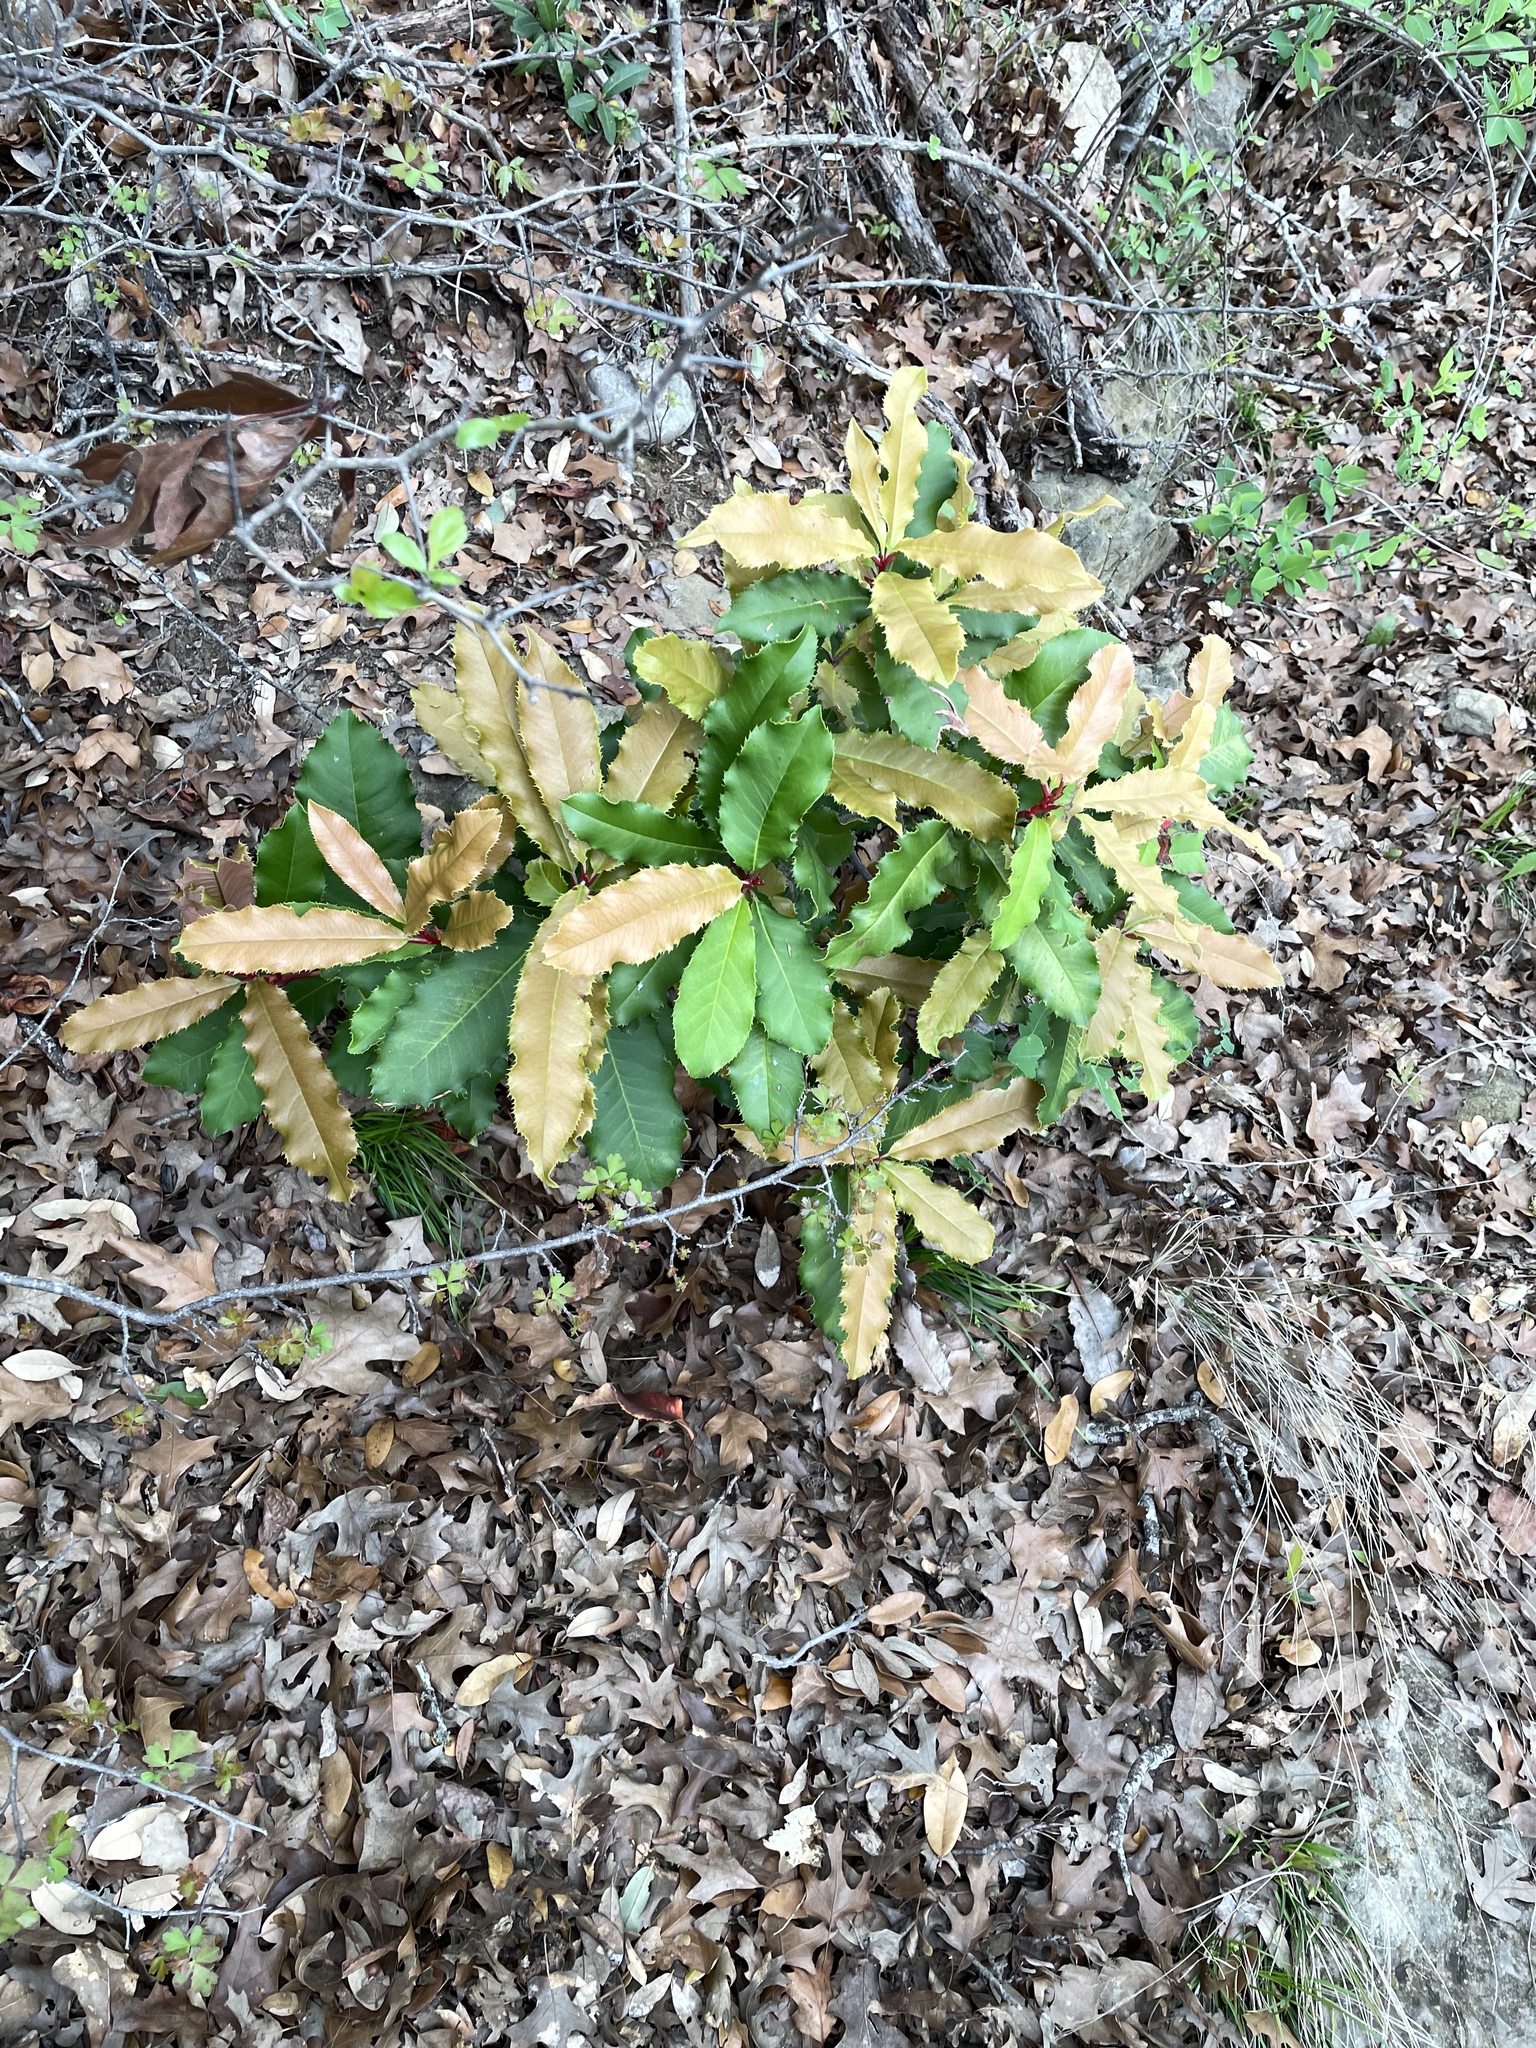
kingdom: Plantae
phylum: Tracheophyta
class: Magnoliopsida
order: Rosales
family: Rosaceae
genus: Photinia
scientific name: Photinia serratifolia
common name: Taiwanese photinia
